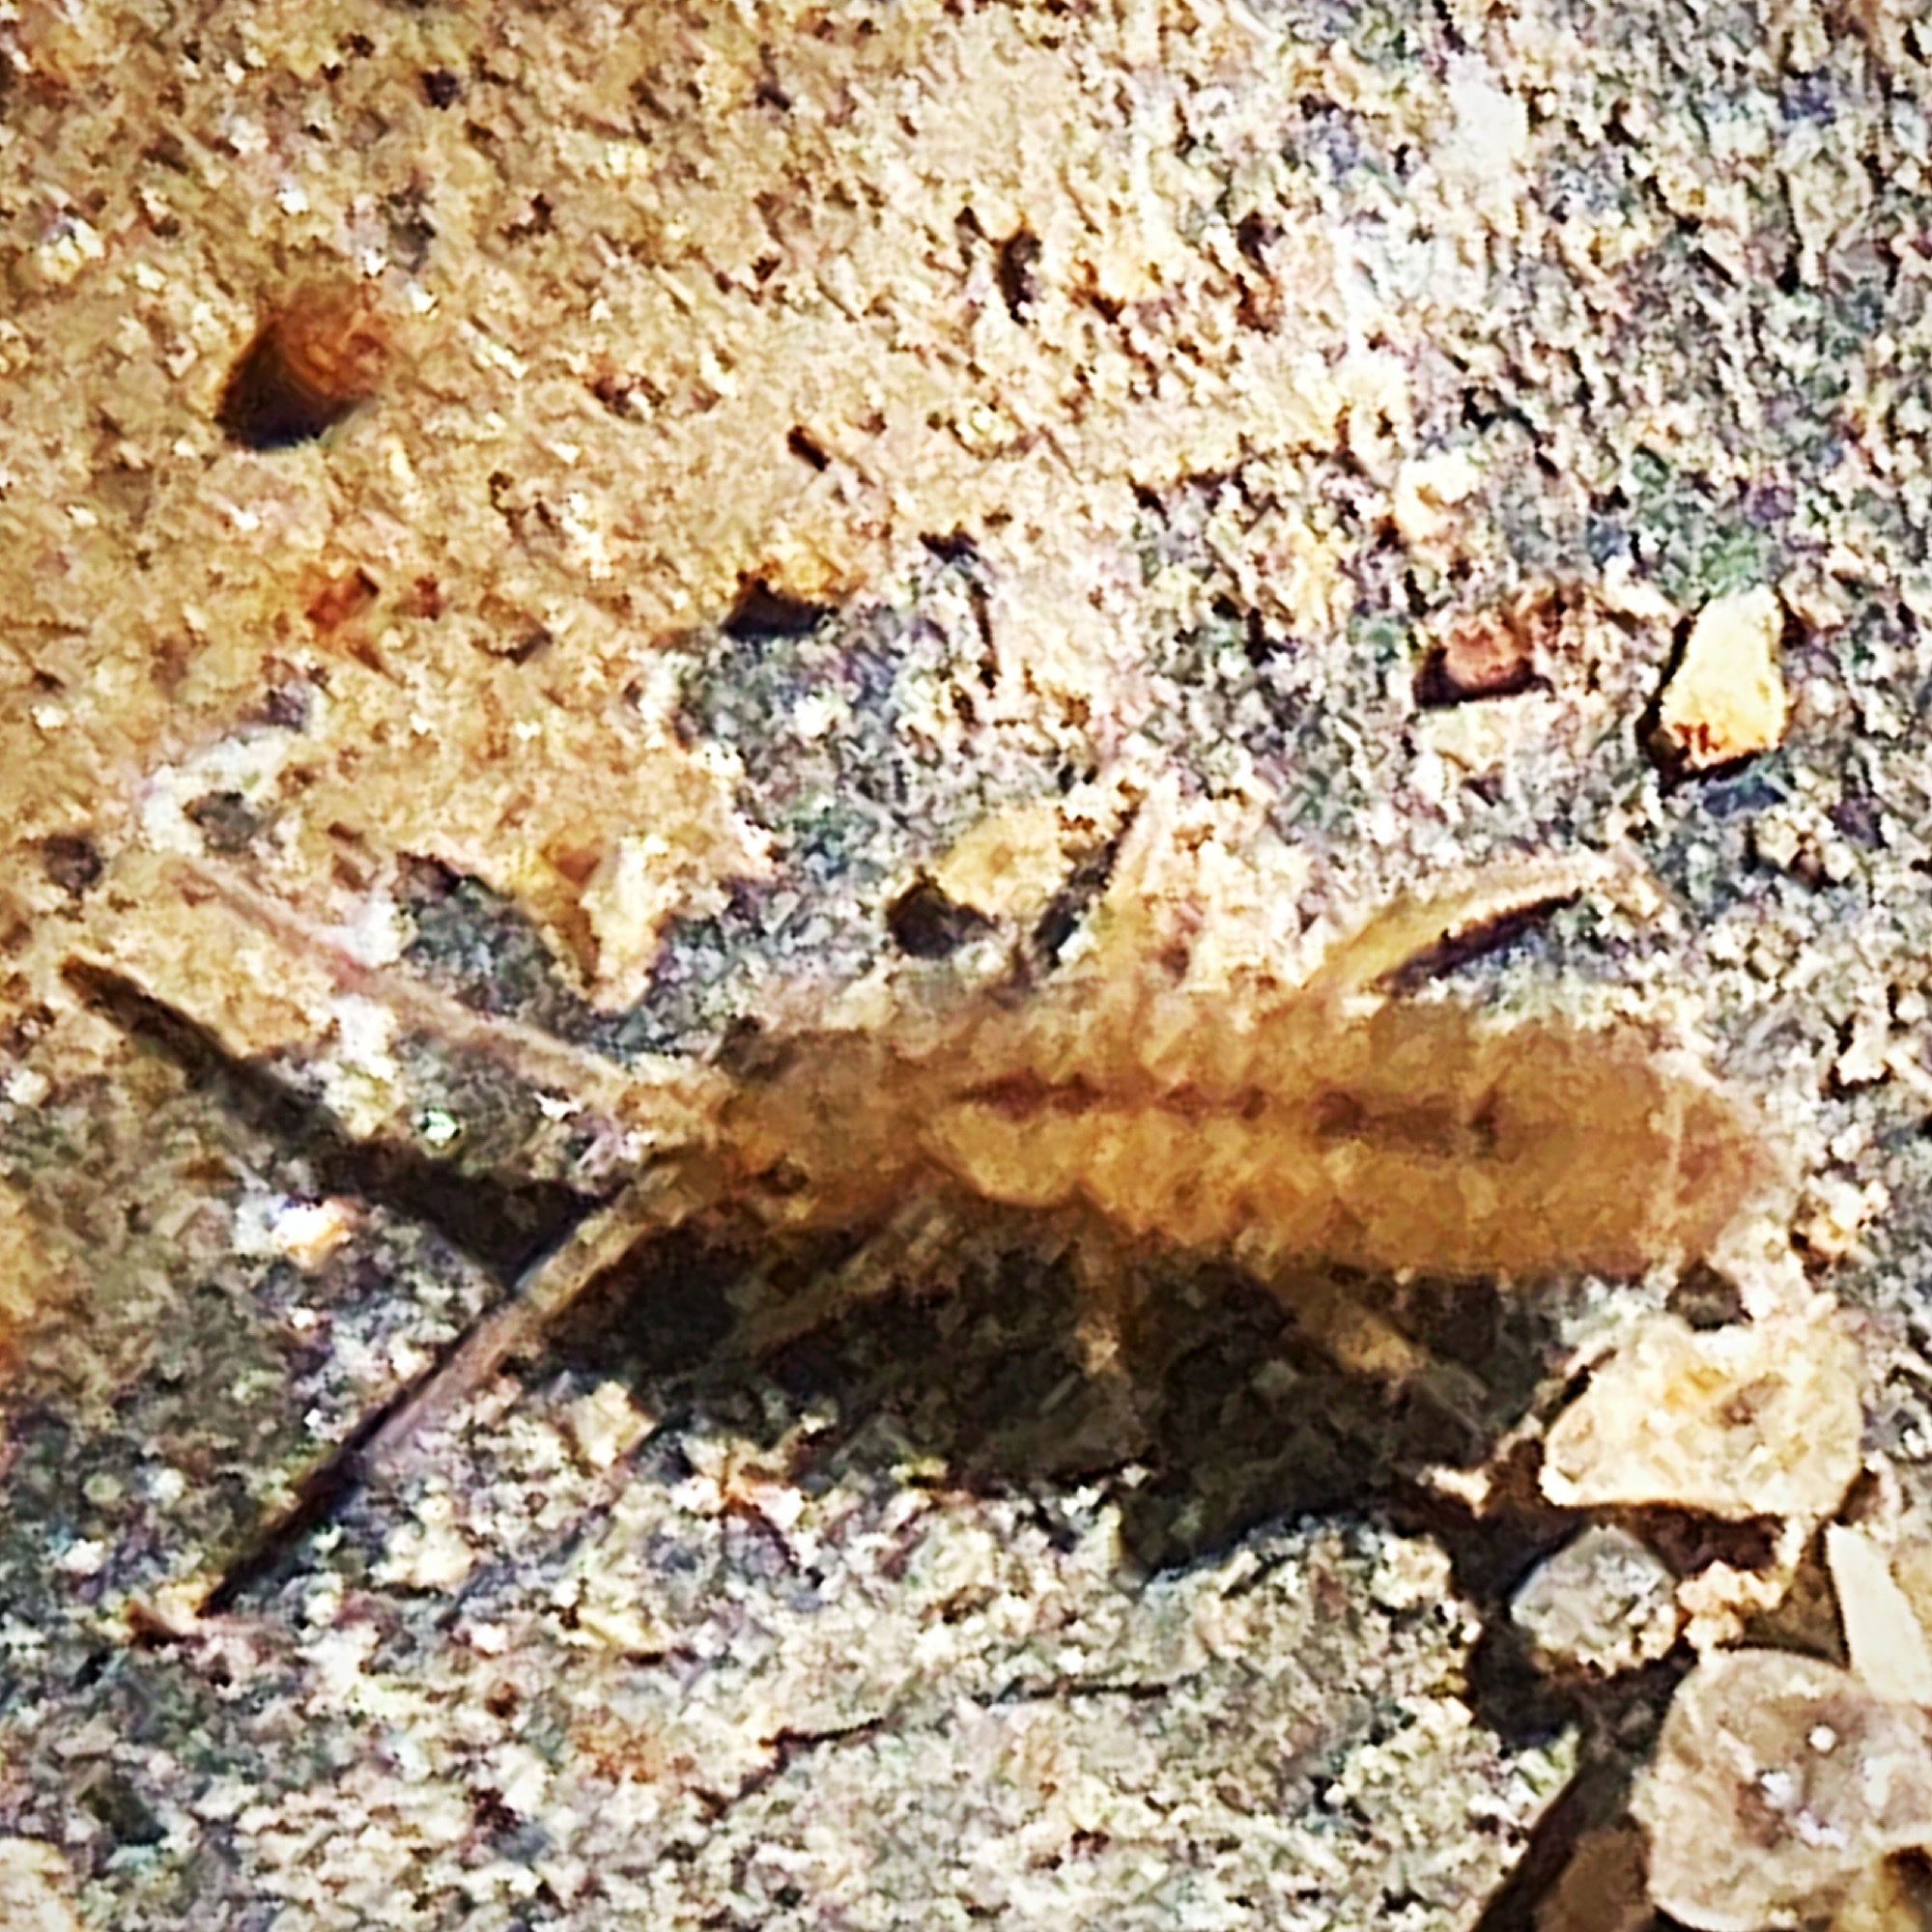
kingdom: Animalia
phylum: Arthropoda
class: Collembola
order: Entomobryomorpha
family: Entomobryidae
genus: Homidia
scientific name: Homidia socia
